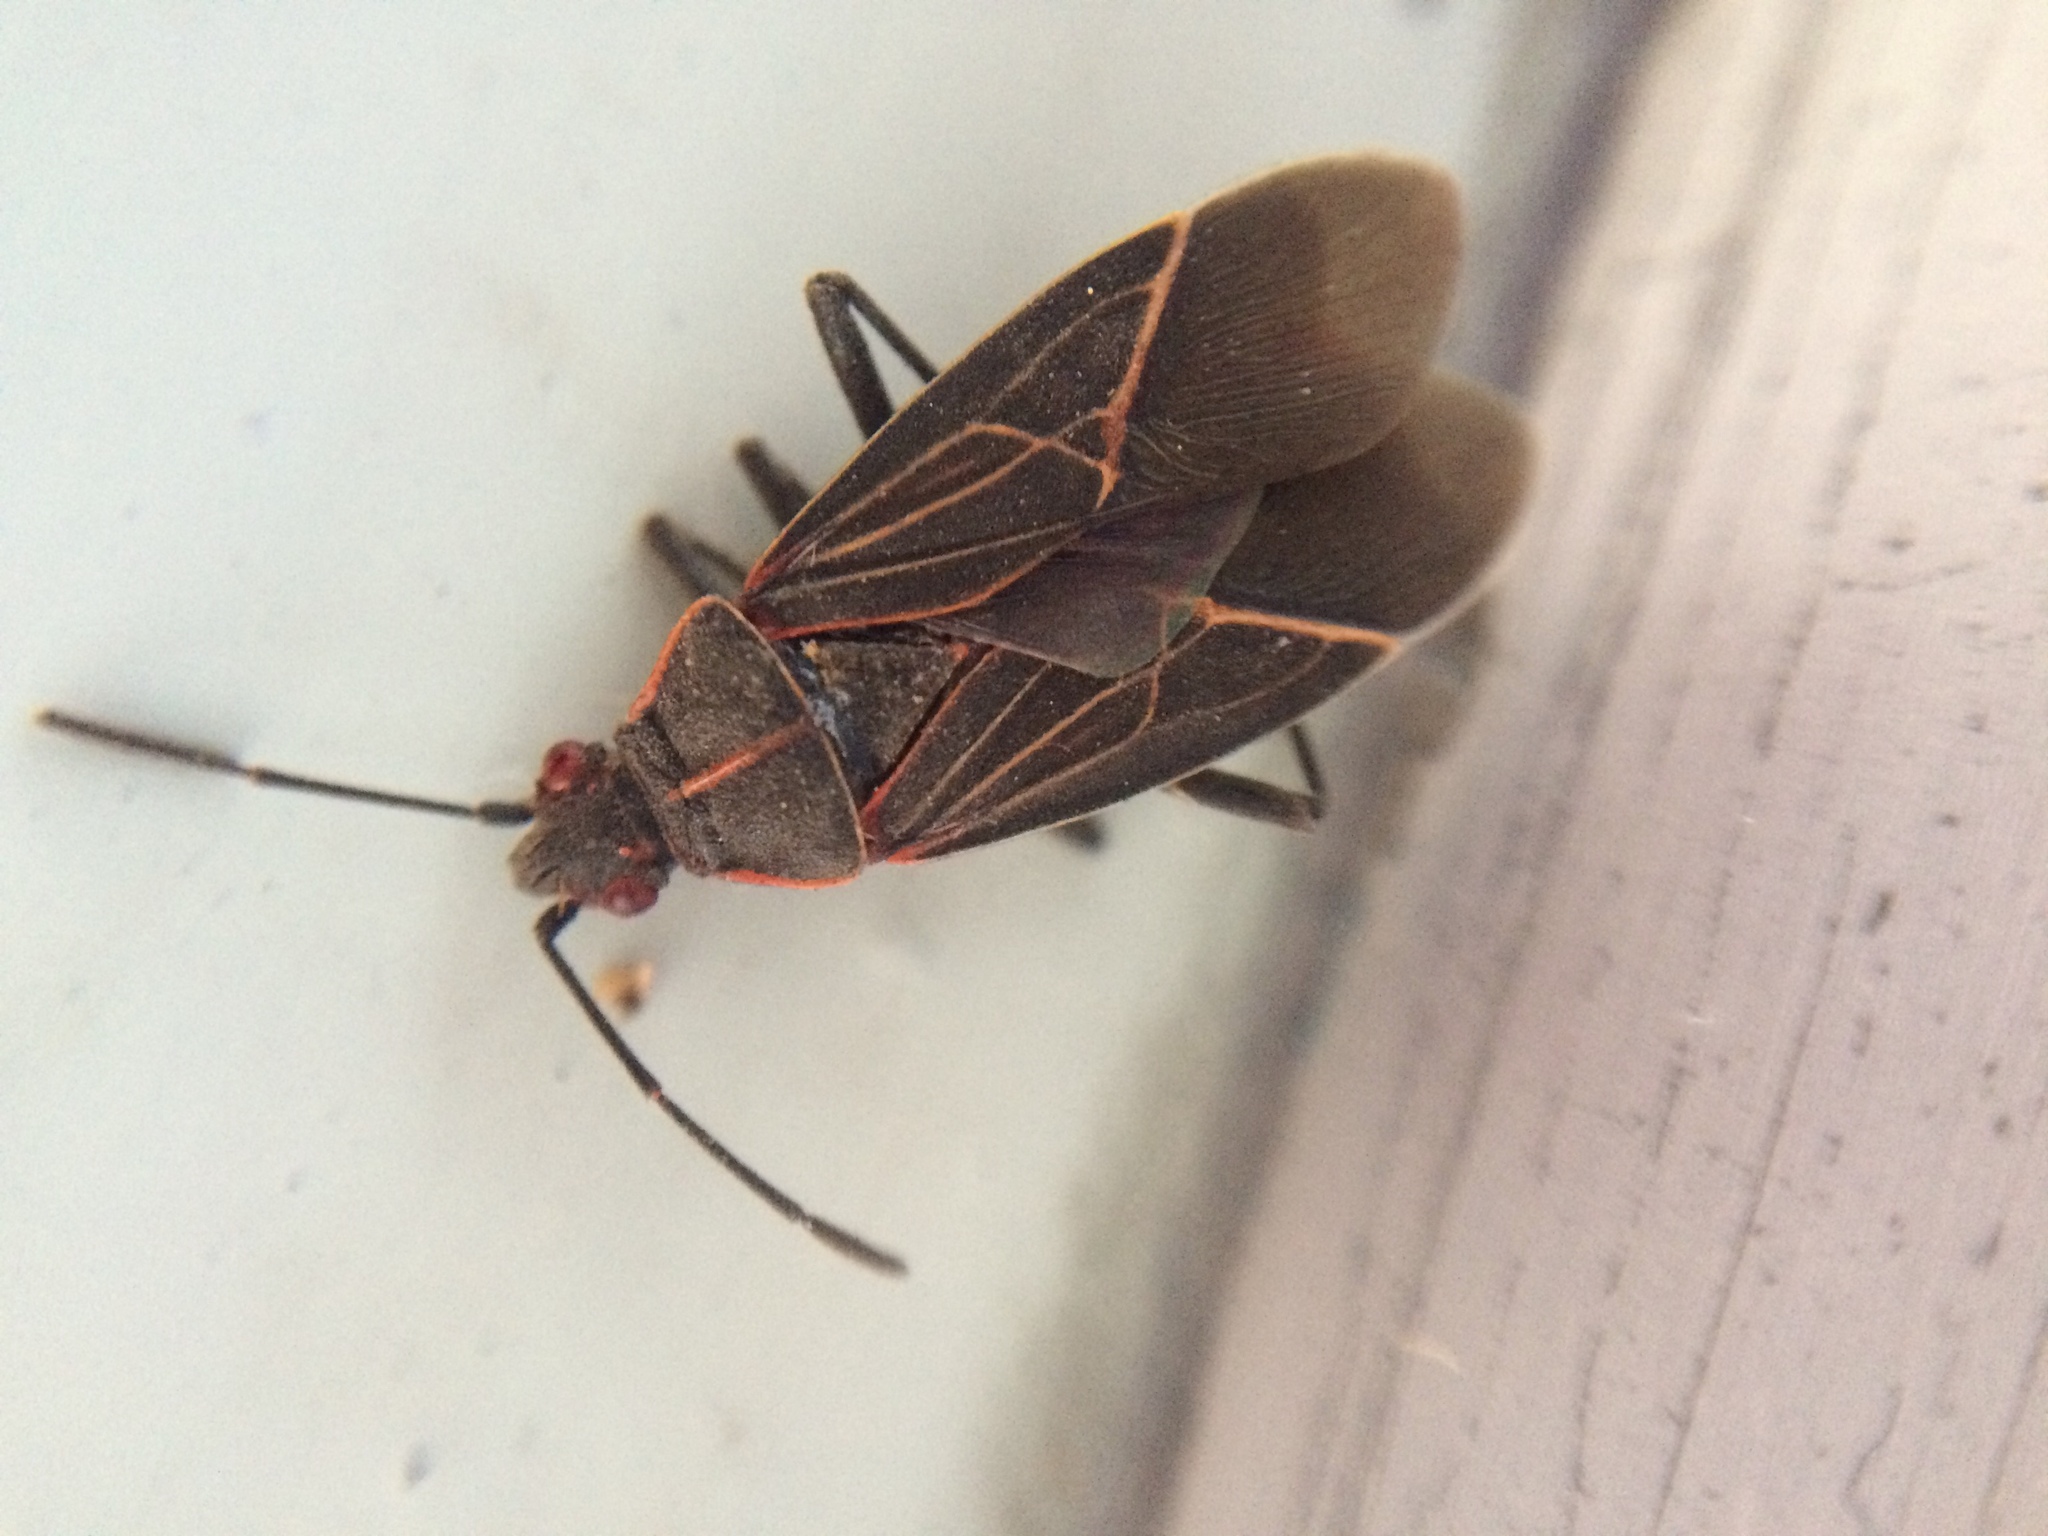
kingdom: Animalia
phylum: Arthropoda
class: Insecta
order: Hemiptera
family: Rhopalidae
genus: Boisea
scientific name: Boisea rubrolineata
